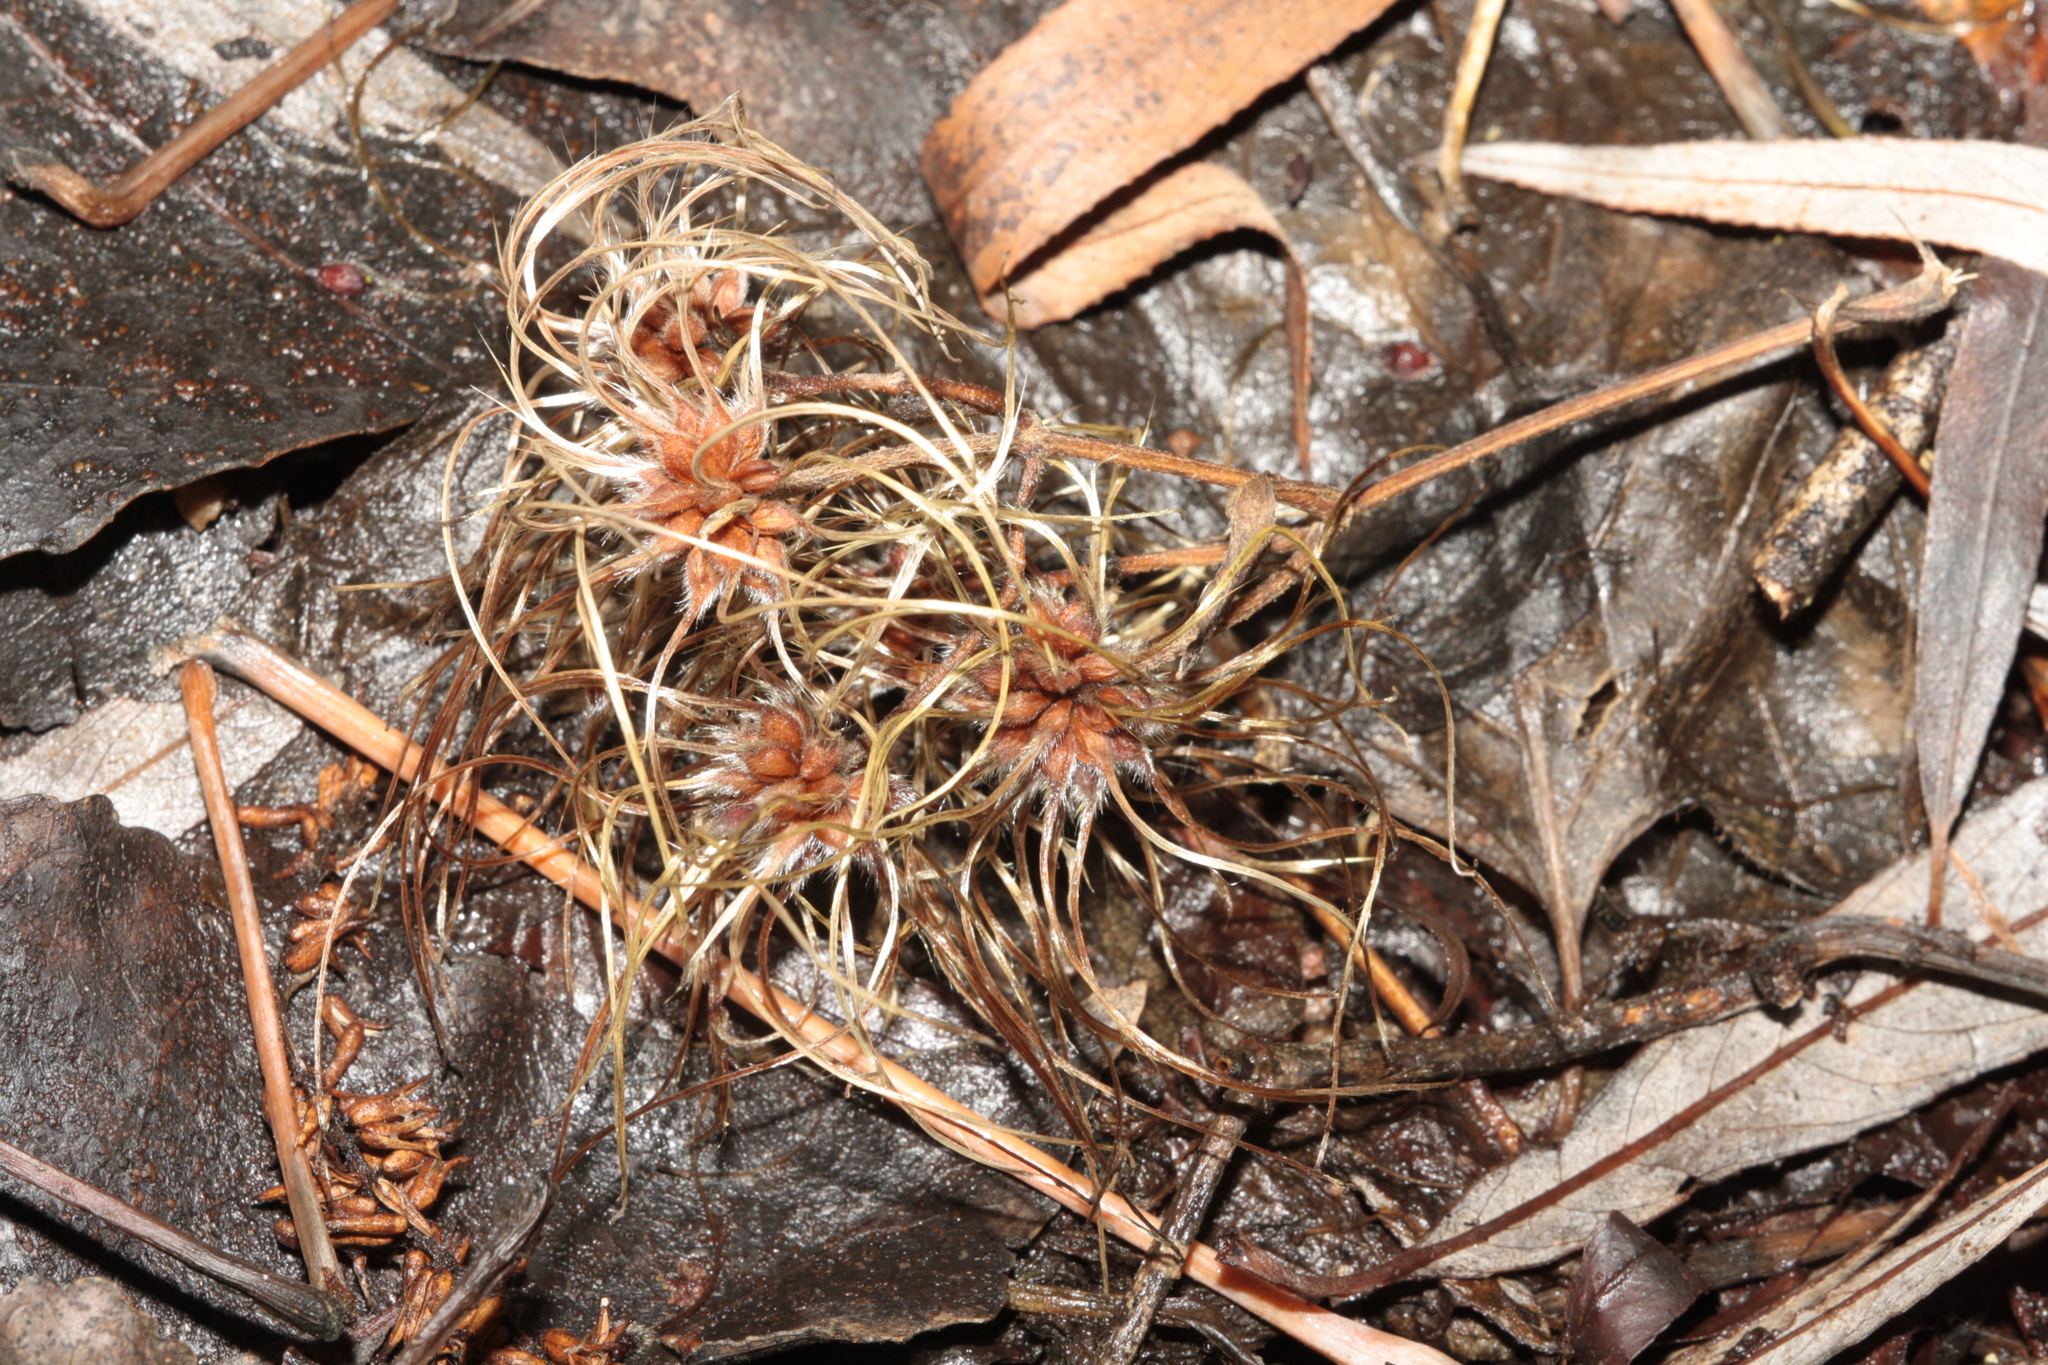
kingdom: Plantae
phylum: Tracheophyta
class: Magnoliopsida
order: Ranunculales
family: Ranunculaceae
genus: Clematis
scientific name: Clematis vitalba
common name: Evergreen clematis
